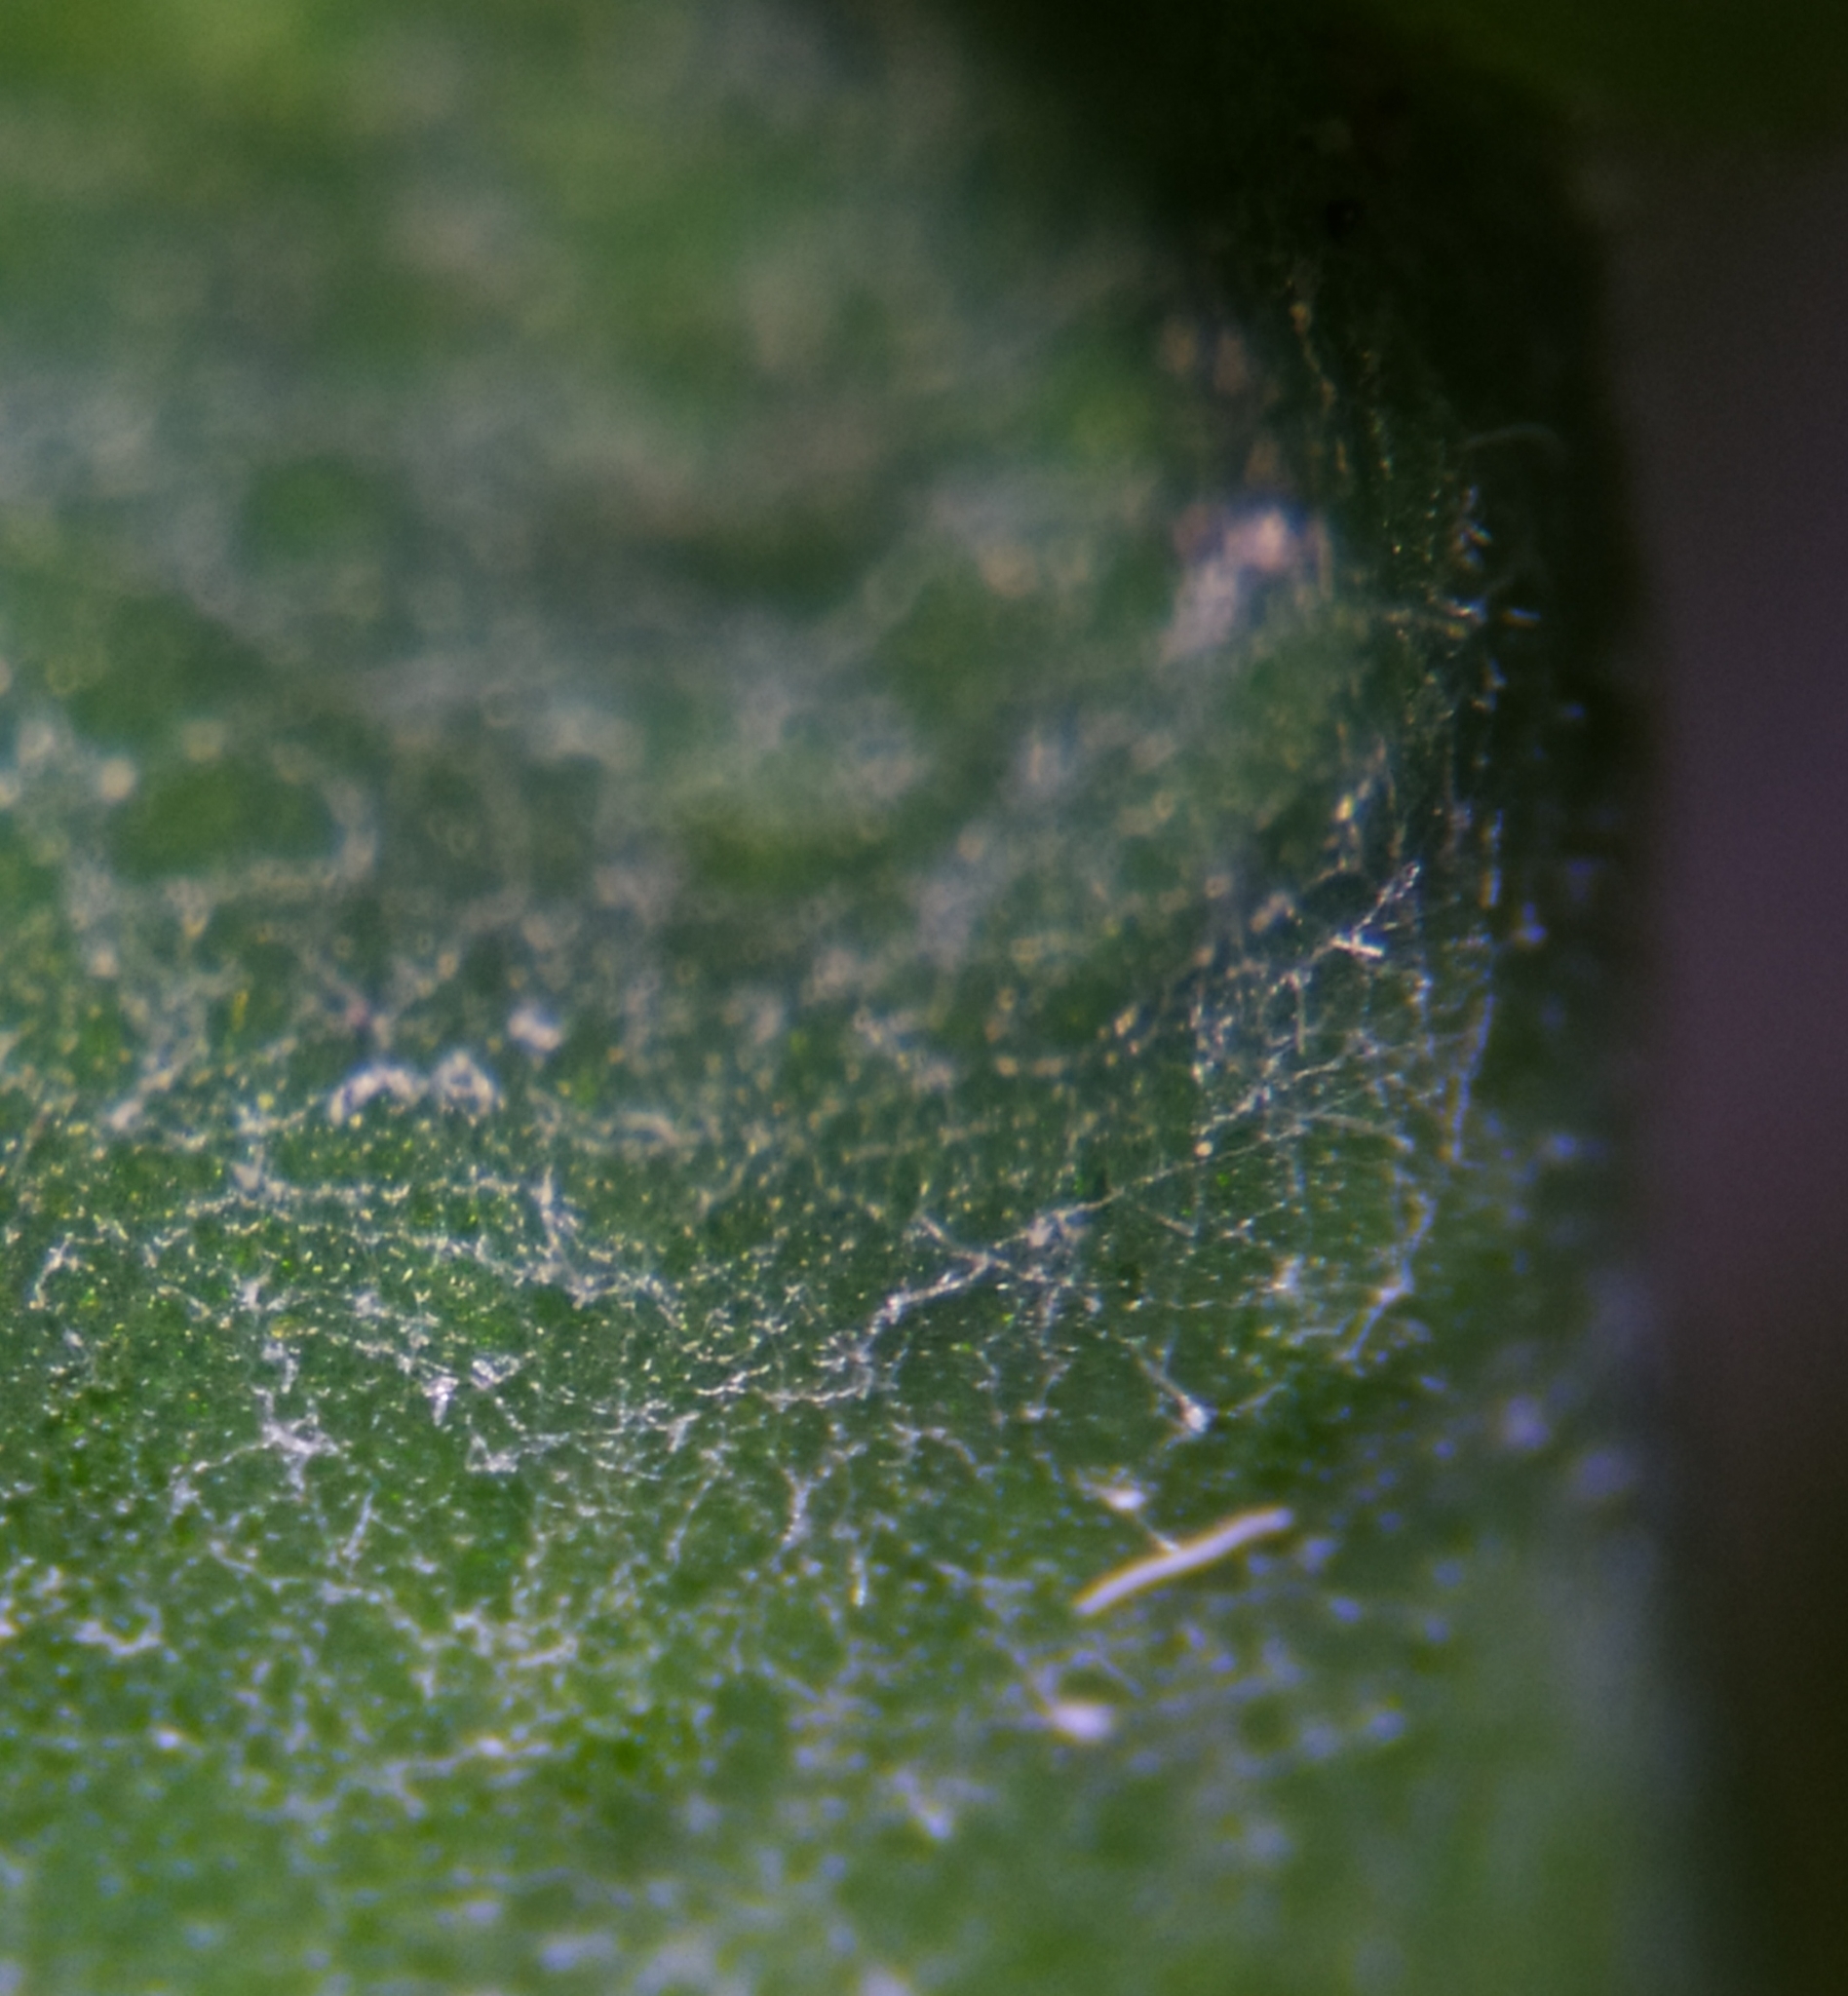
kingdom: Fungi
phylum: Ascomycota
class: Leotiomycetes
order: Helotiales
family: Erysiphaceae
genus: Erysiphe
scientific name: Erysiphe russellii
